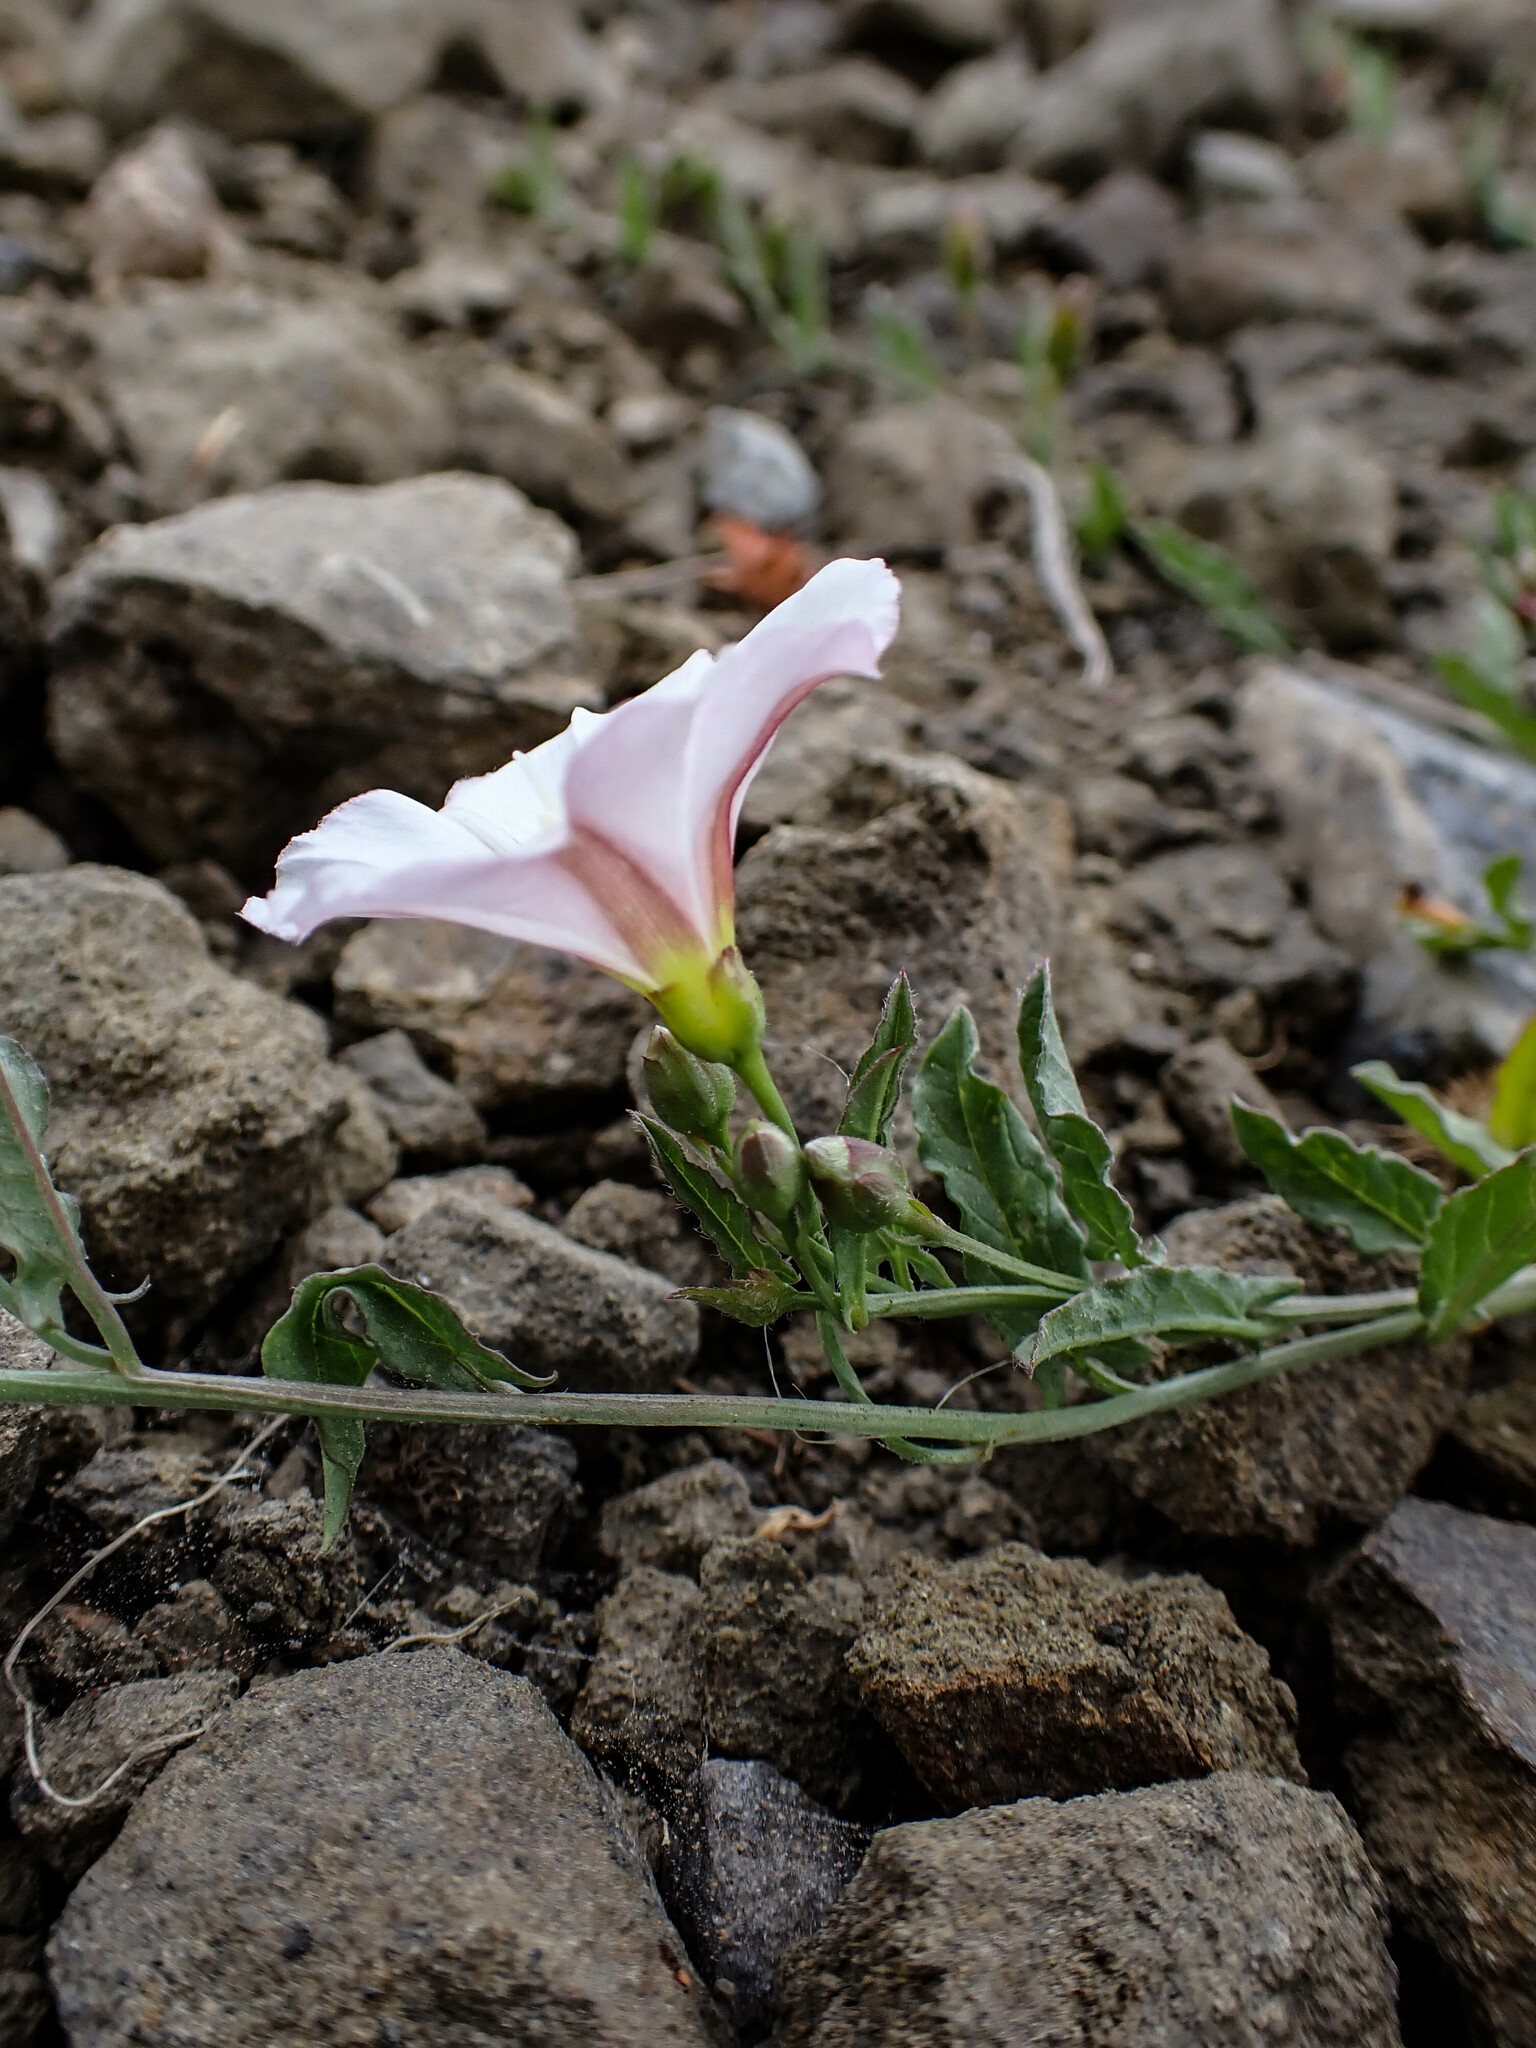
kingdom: Plantae
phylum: Tracheophyta
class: Magnoliopsida
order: Solanales
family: Convolvulaceae
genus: Convolvulus
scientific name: Convolvulus arvensis
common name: Field bindweed
